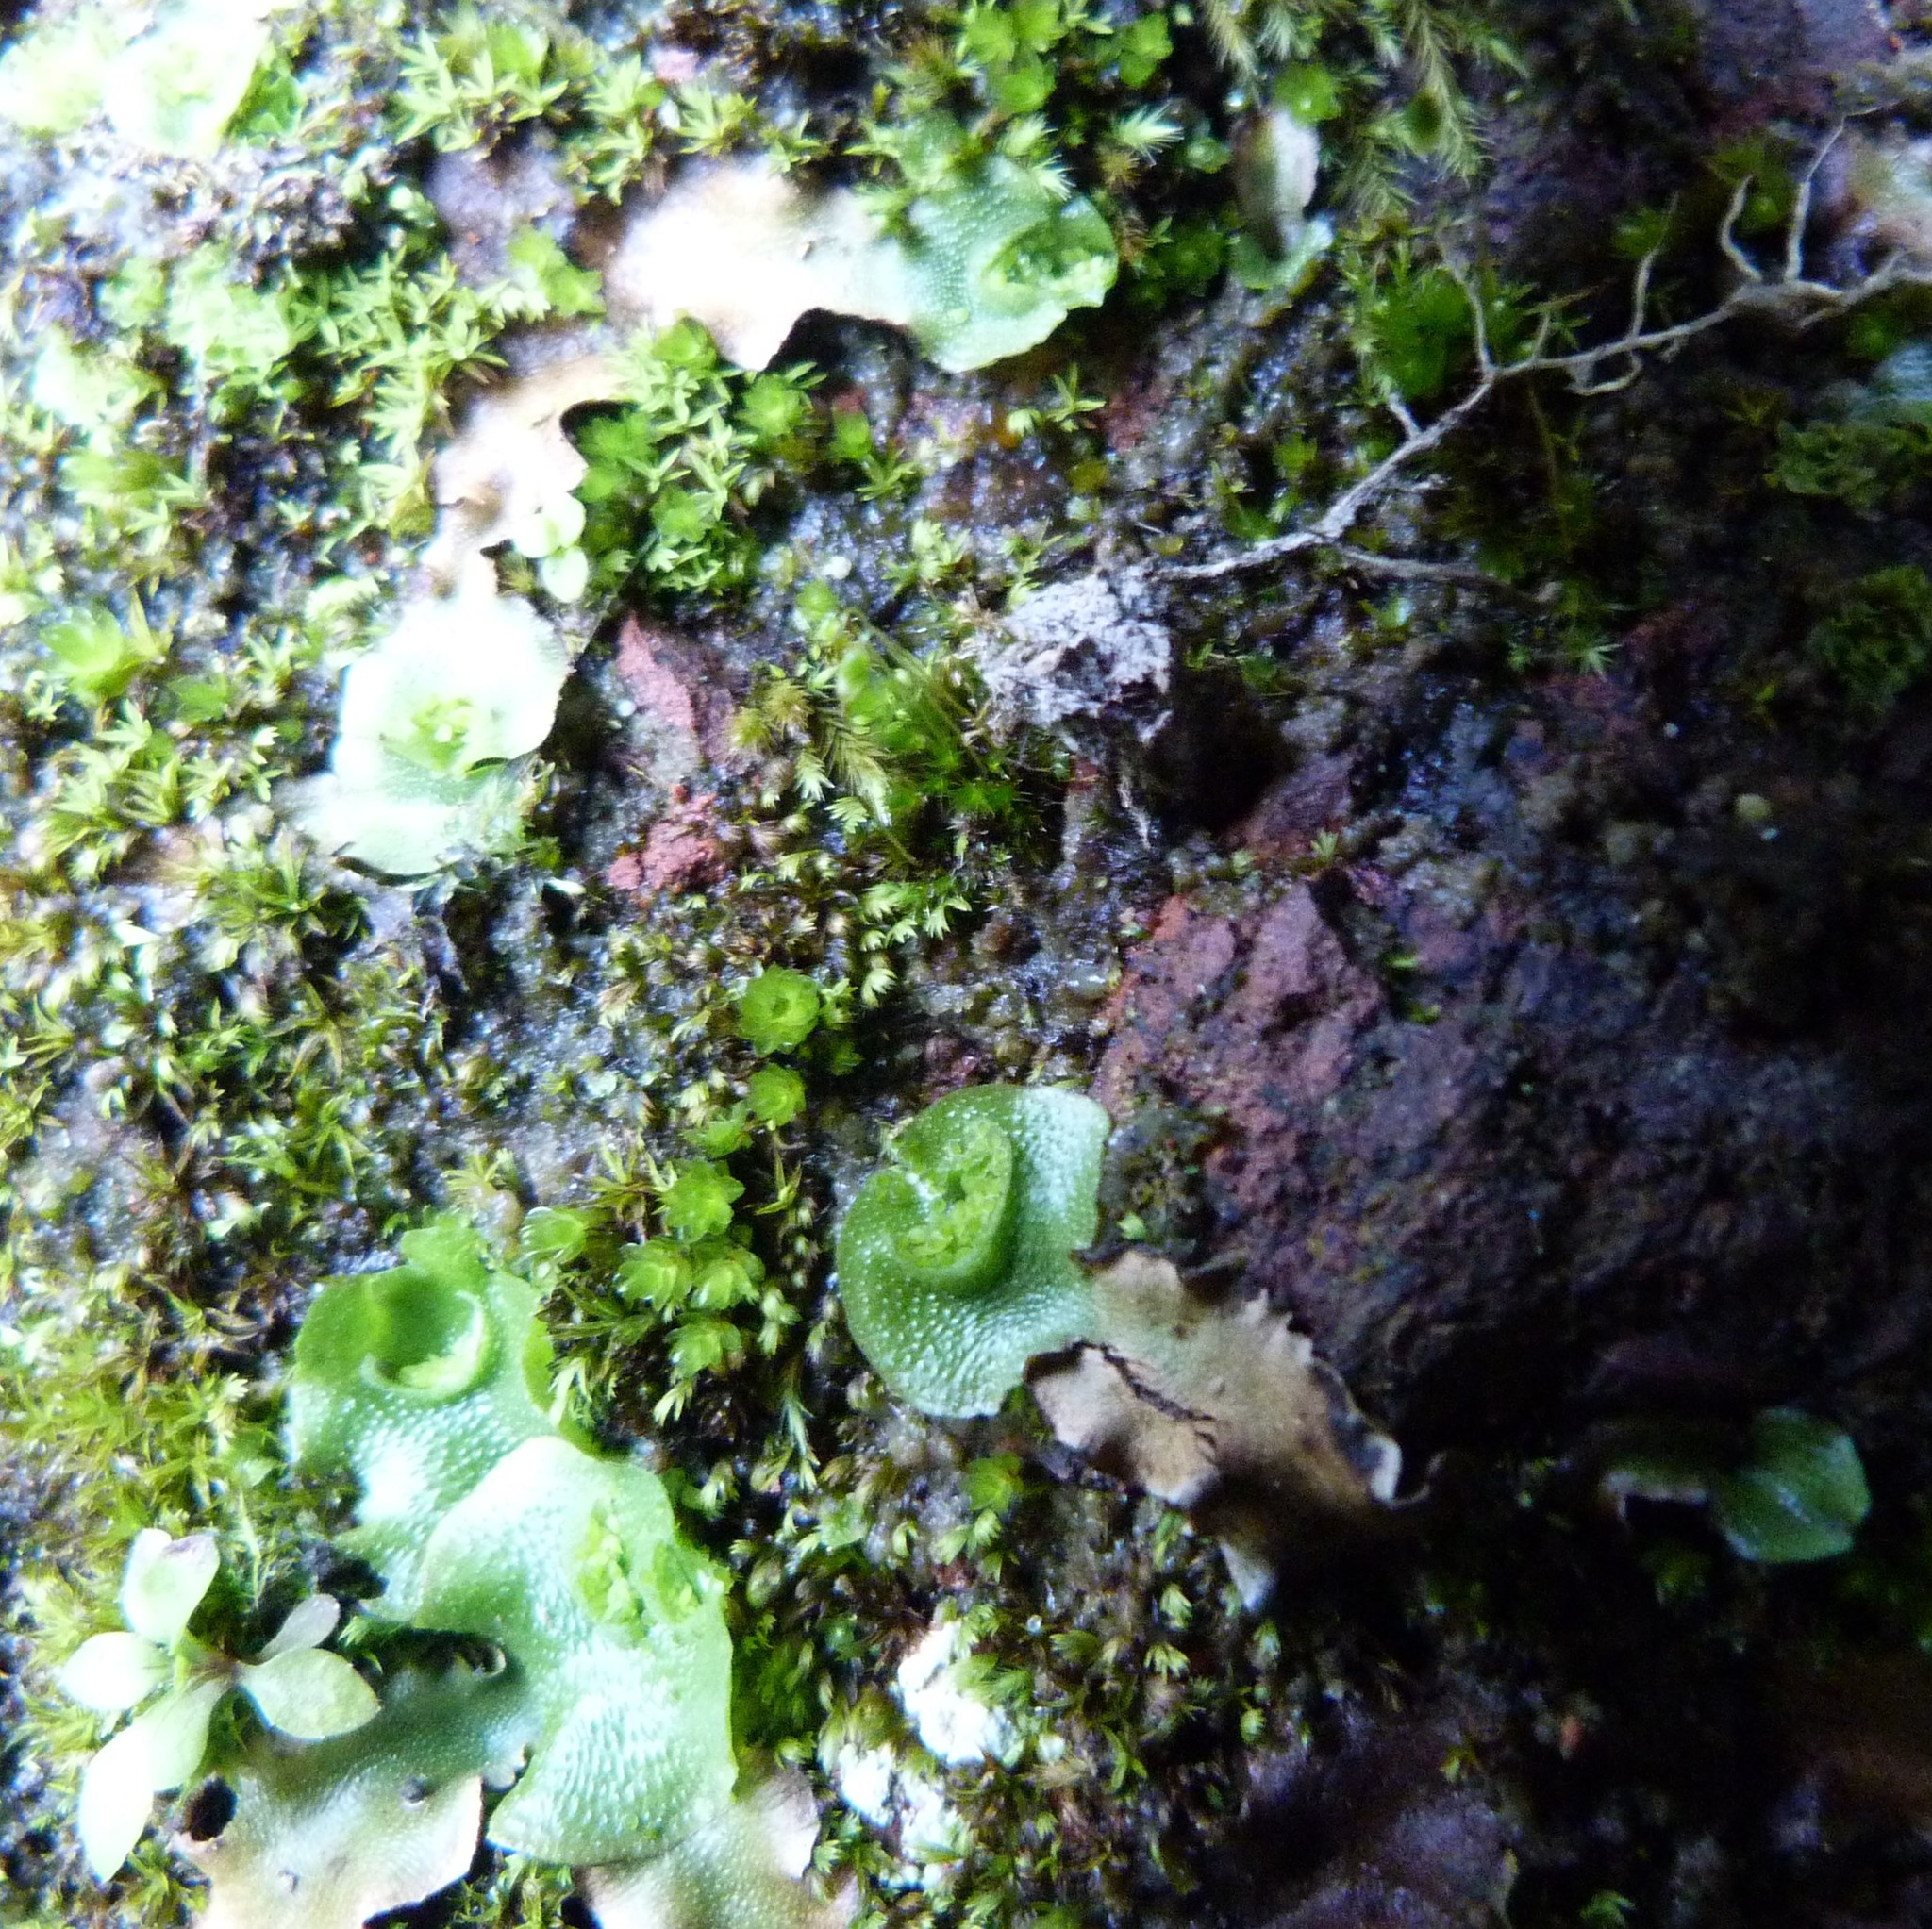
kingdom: Plantae
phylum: Marchantiophyta
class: Marchantiopsida
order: Lunulariales
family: Lunulariaceae
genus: Lunularia
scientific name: Lunularia cruciata
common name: Crescent-cup liverwort
